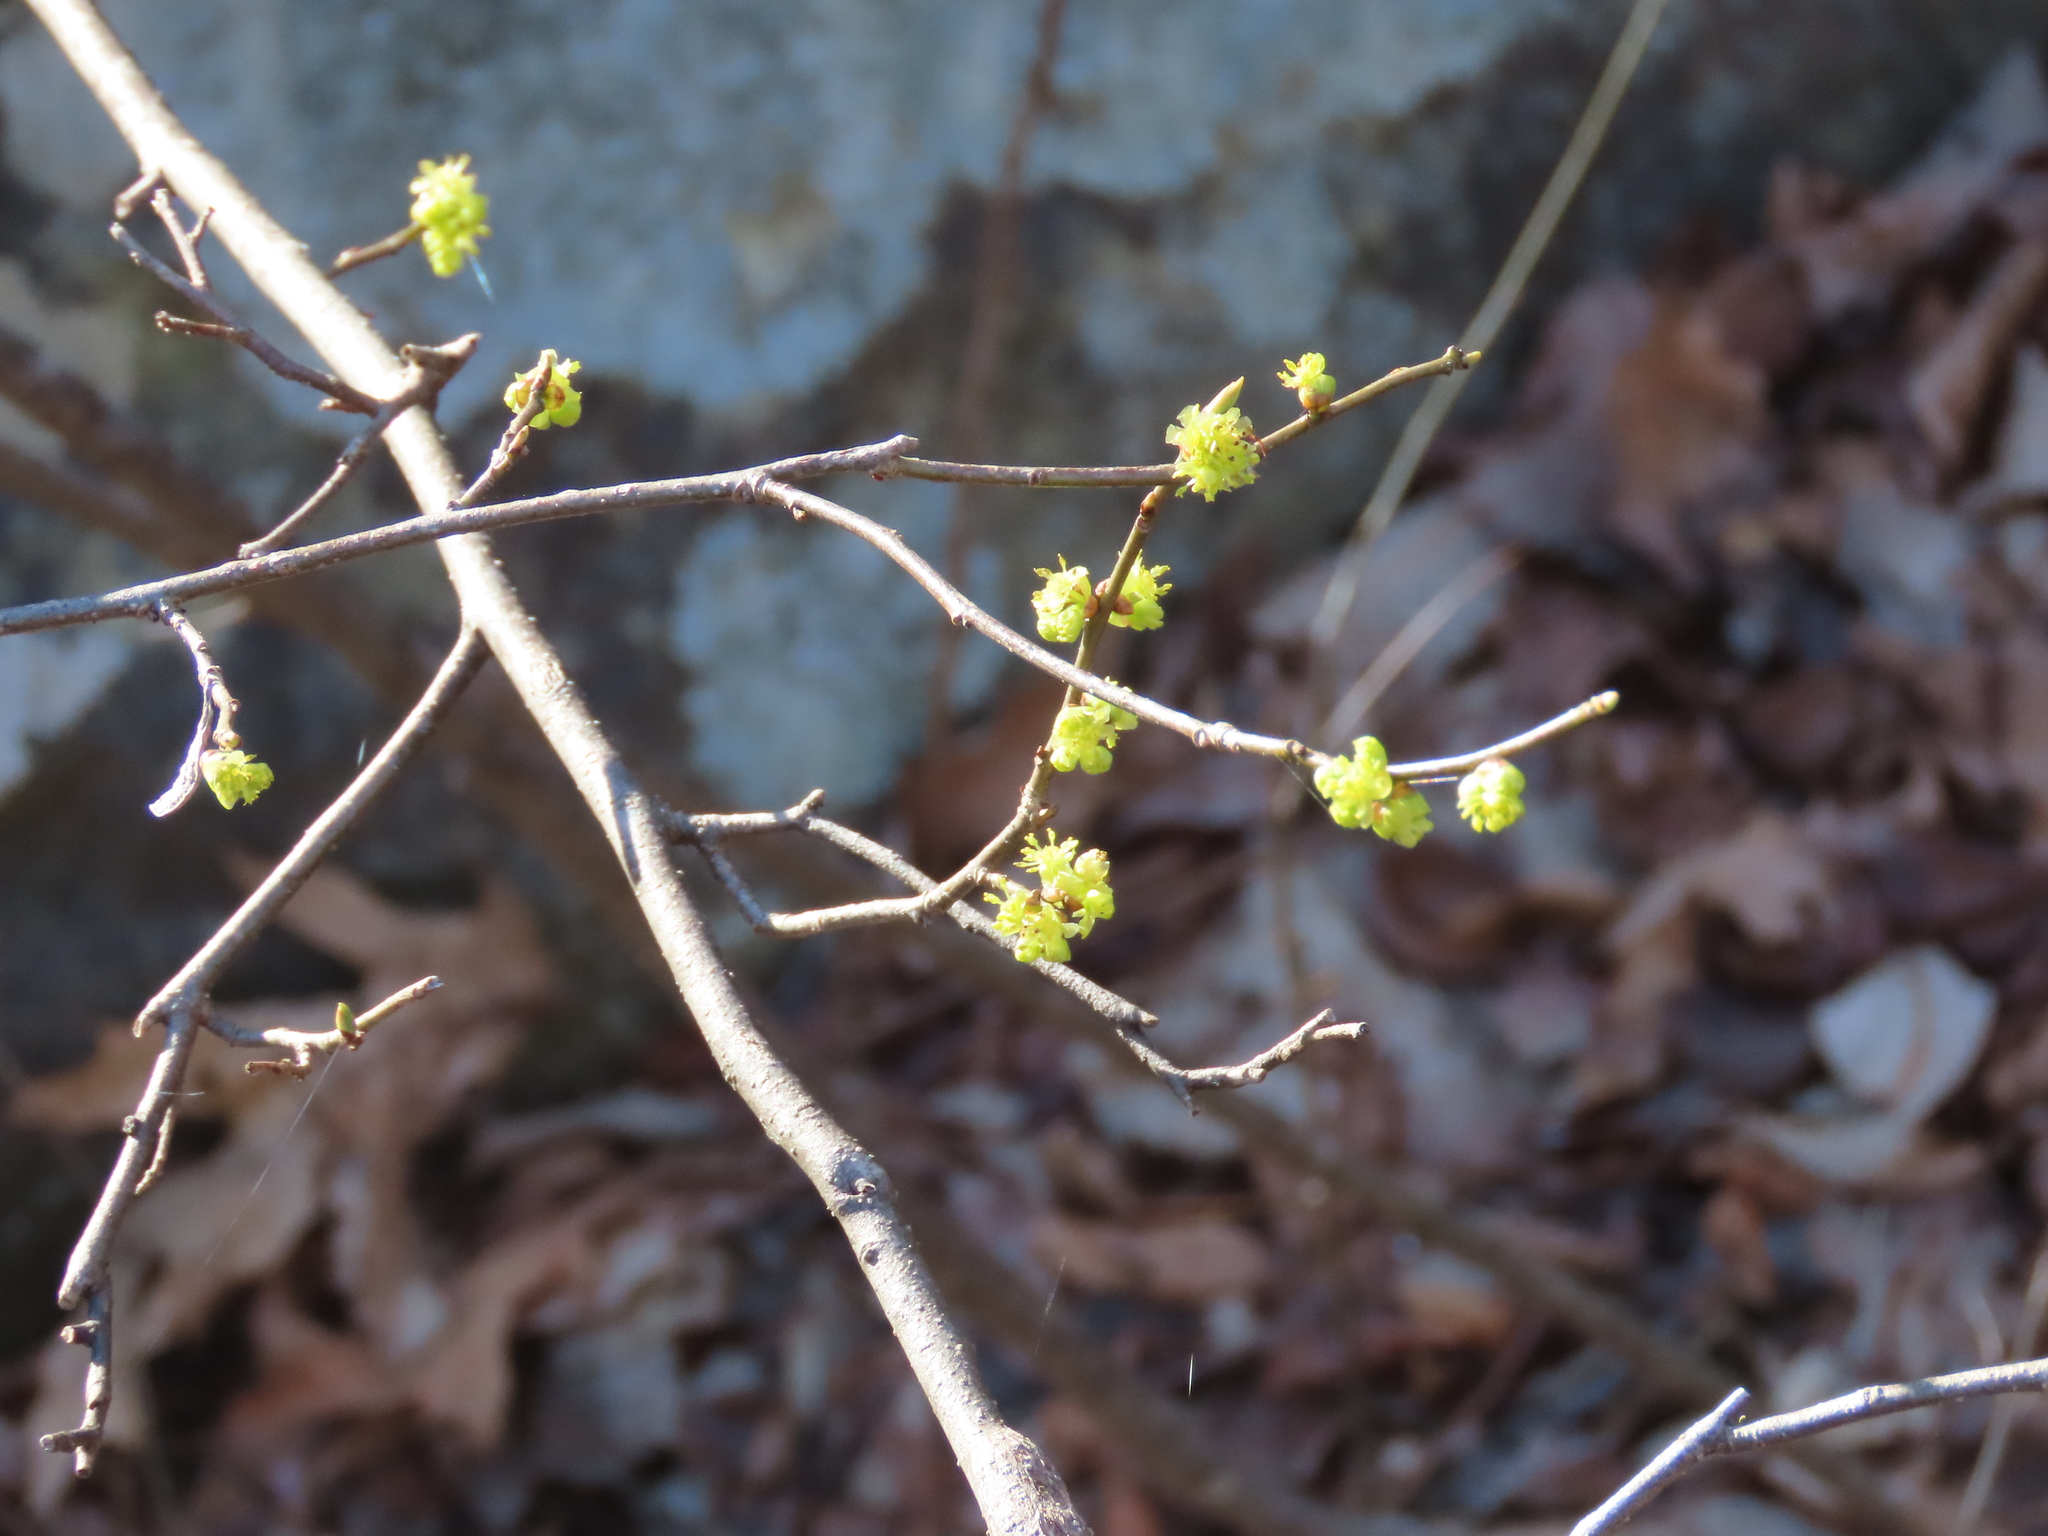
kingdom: Plantae
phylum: Tracheophyta
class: Magnoliopsida
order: Laurales
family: Lauraceae
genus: Lindera
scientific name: Lindera benzoin
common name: Spicebush
